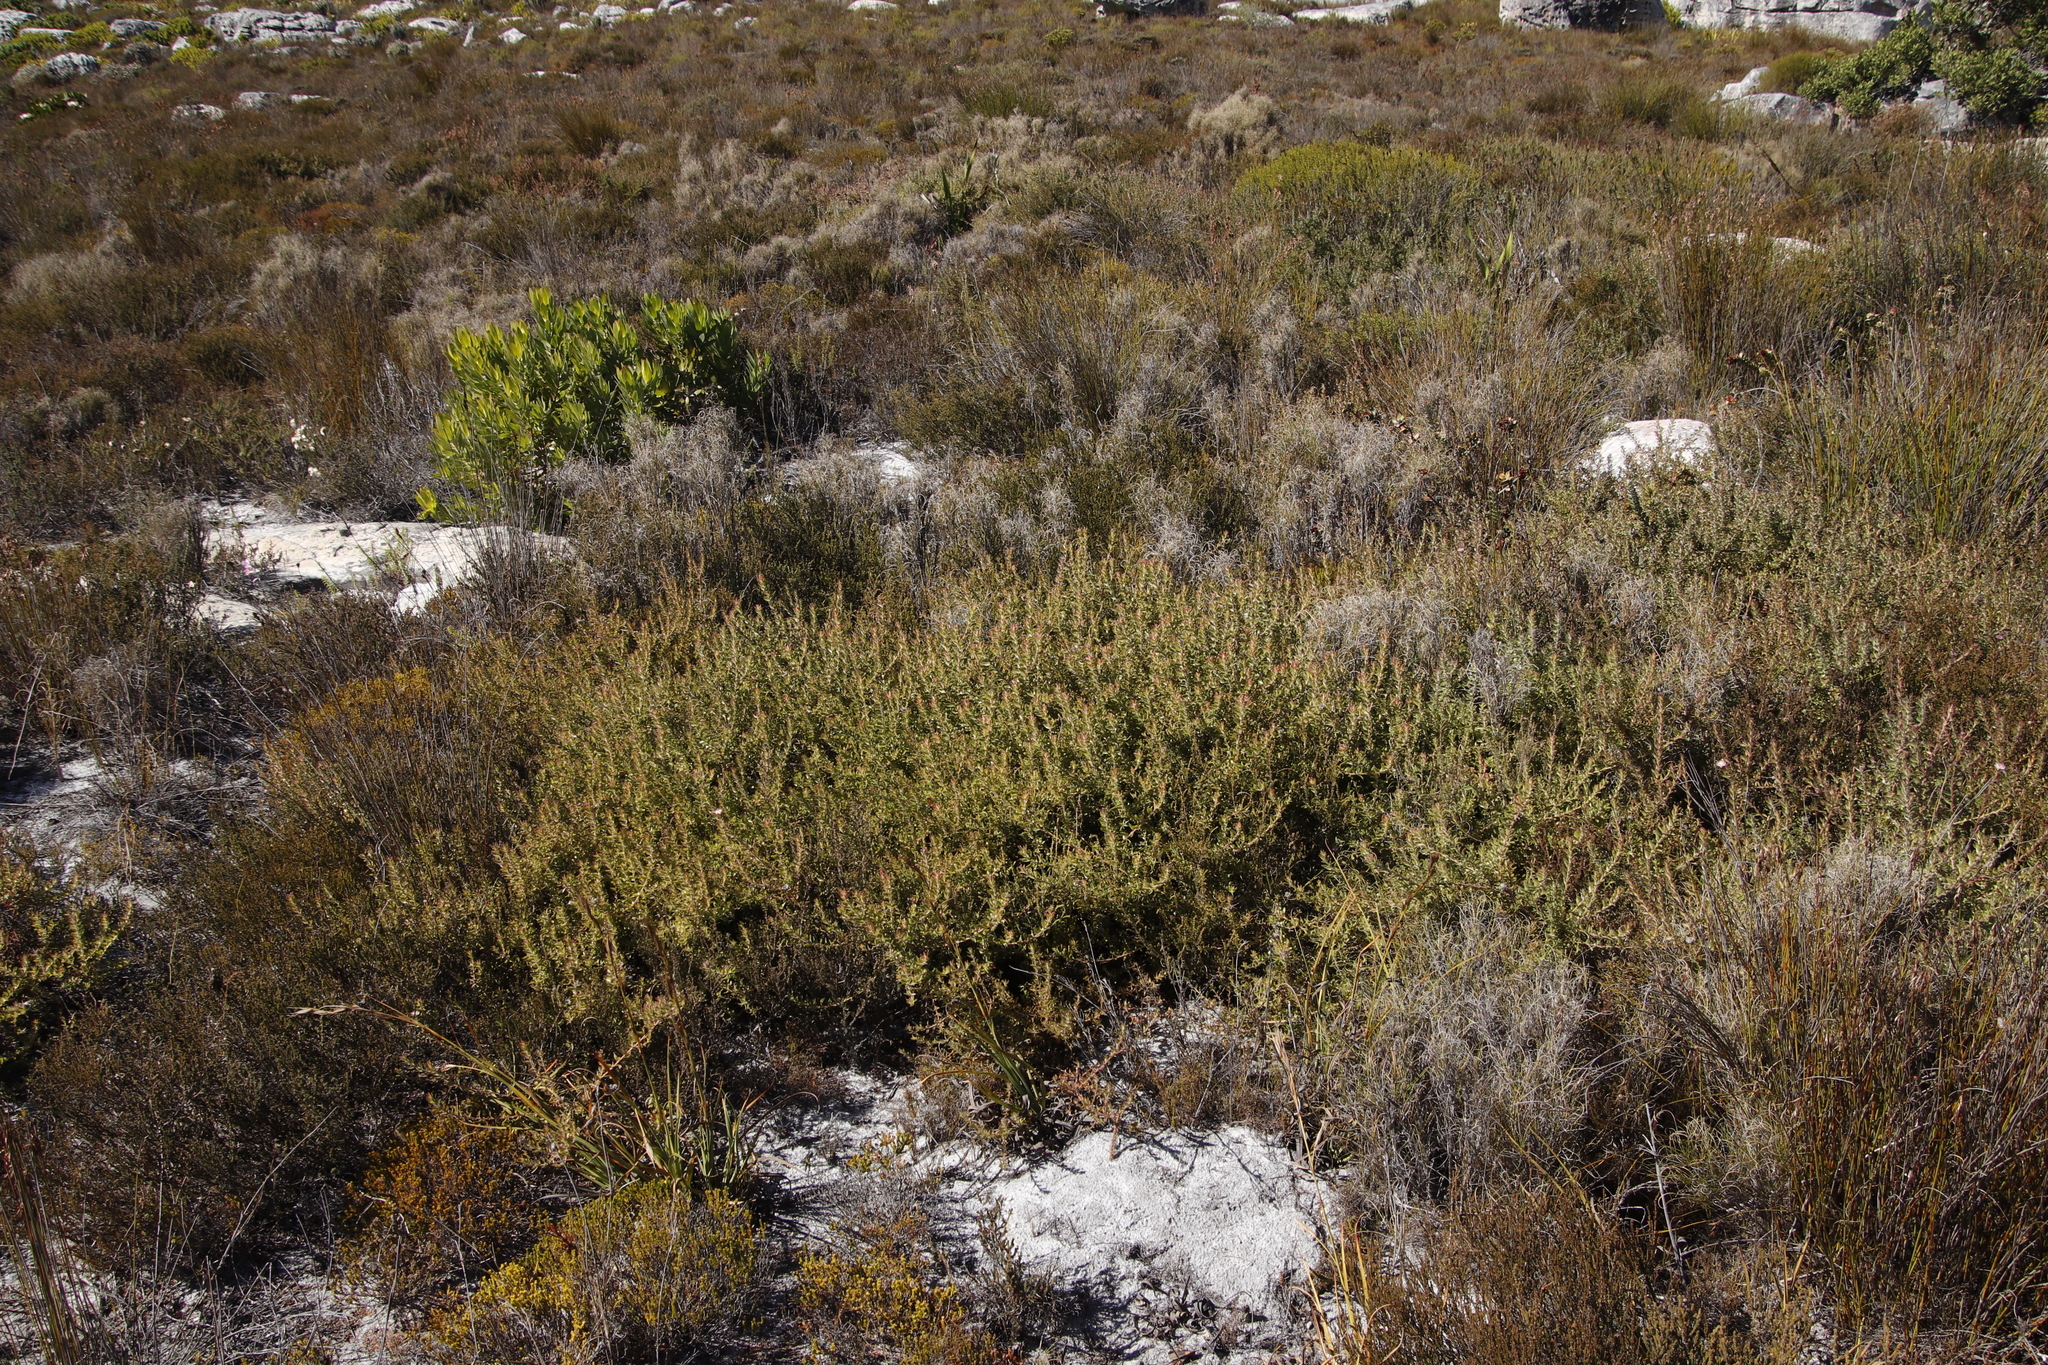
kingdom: Plantae
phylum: Tracheophyta
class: Magnoliopsida
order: Proteales
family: Proteaceae
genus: Diastella
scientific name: Diastella divaricata
